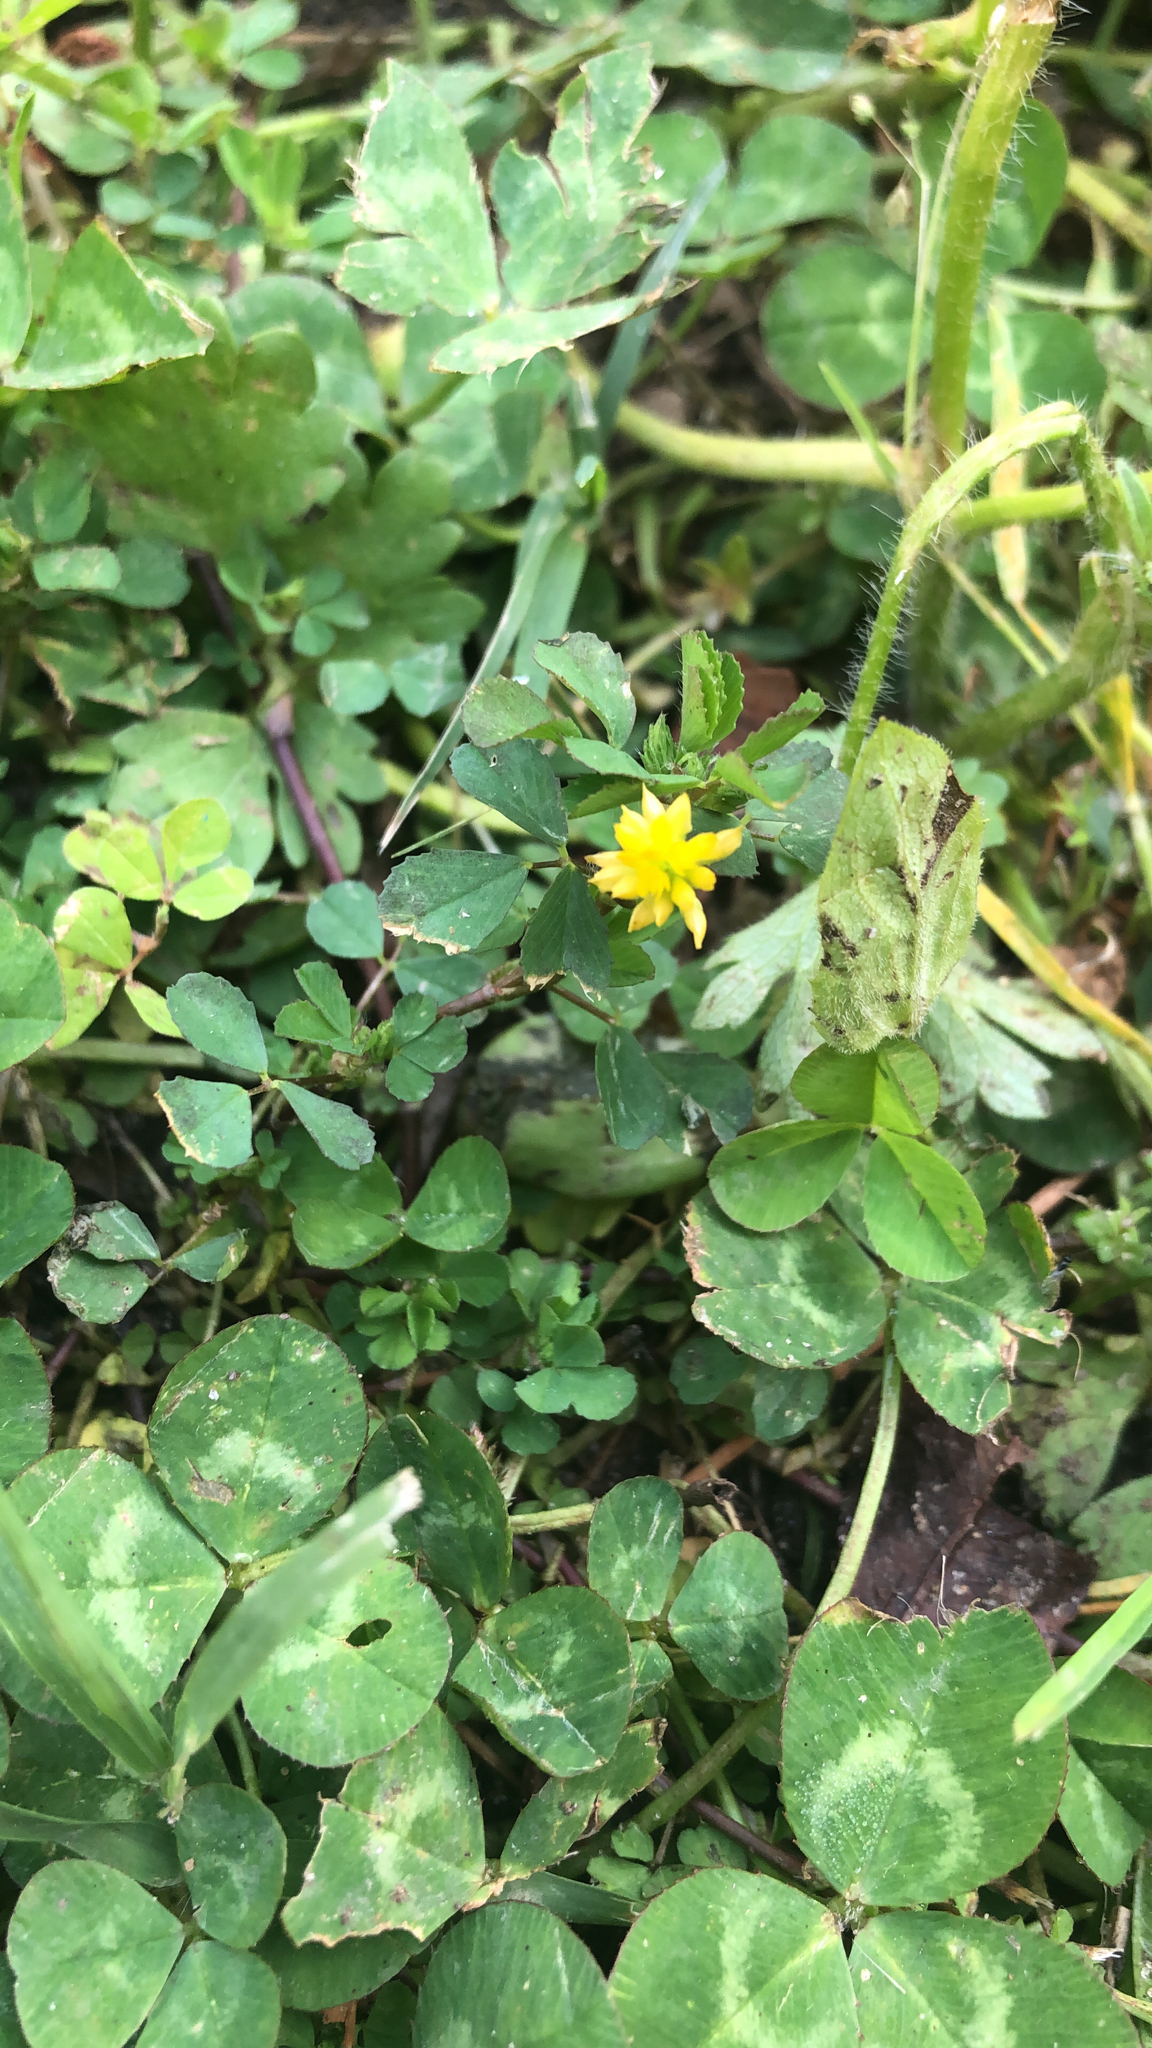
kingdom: Plantae
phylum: Tracheophyta
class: Magnoliopsida
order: Fabales
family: Fabaceae
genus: Trifolium
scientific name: Trifolium dubium
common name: Suckling clover
